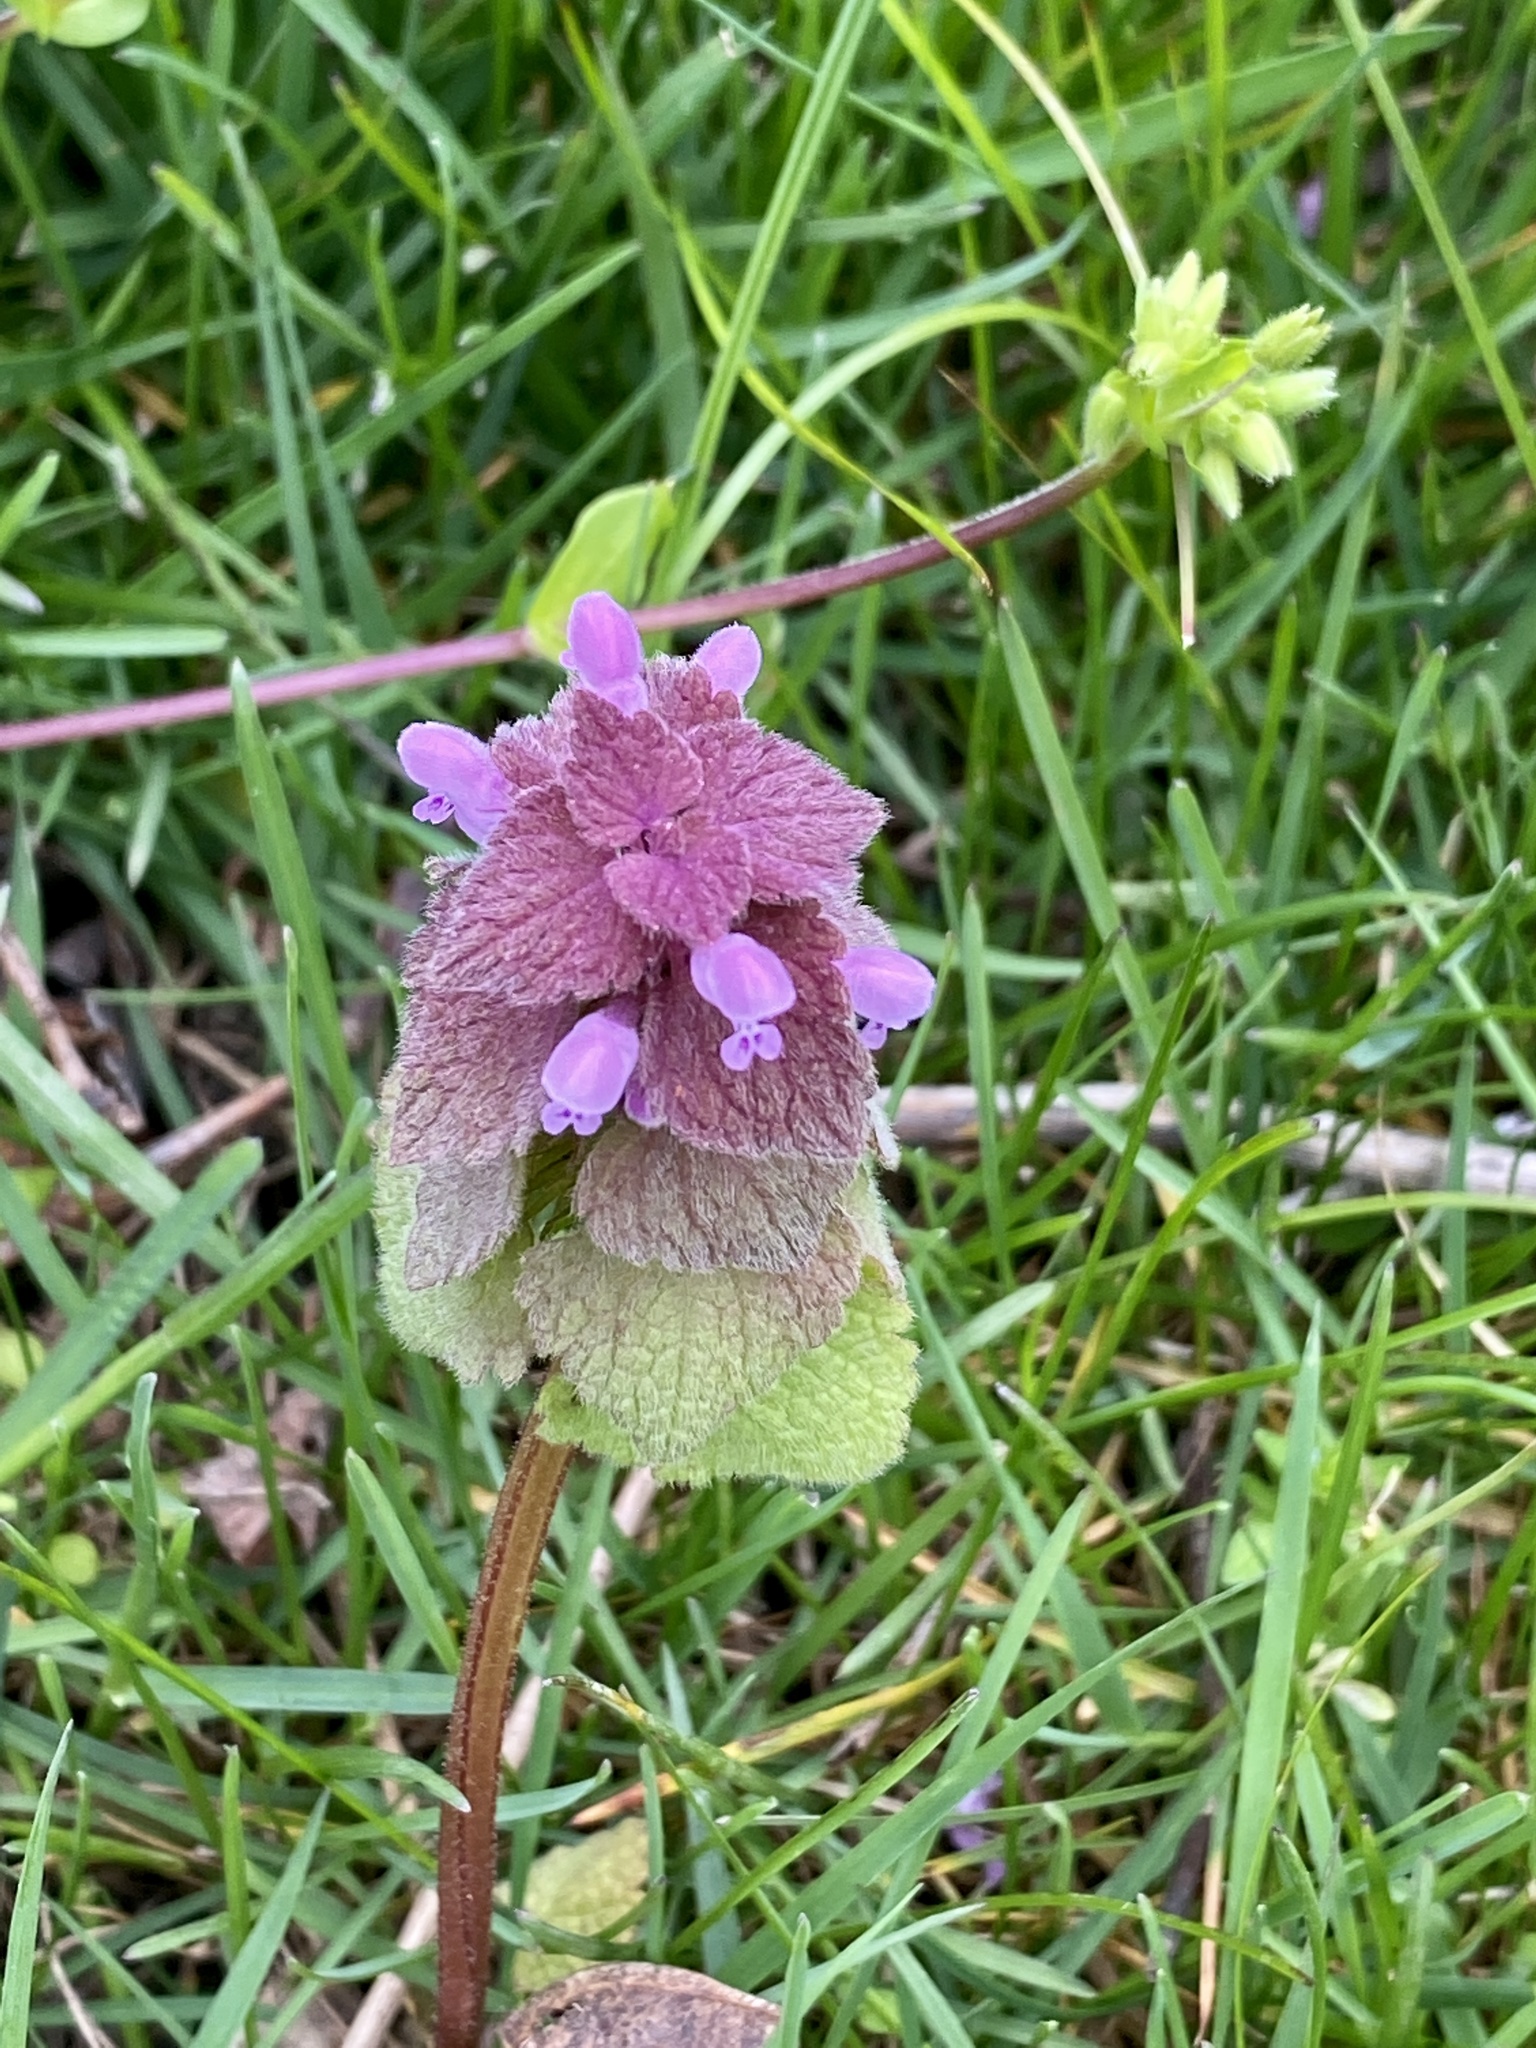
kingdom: Plantae
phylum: Tracheophyta
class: Magnoliopsida
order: Lamiales
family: Lamiaceae
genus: Lamium
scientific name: Lamium purpureum
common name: Red dead-nettle
